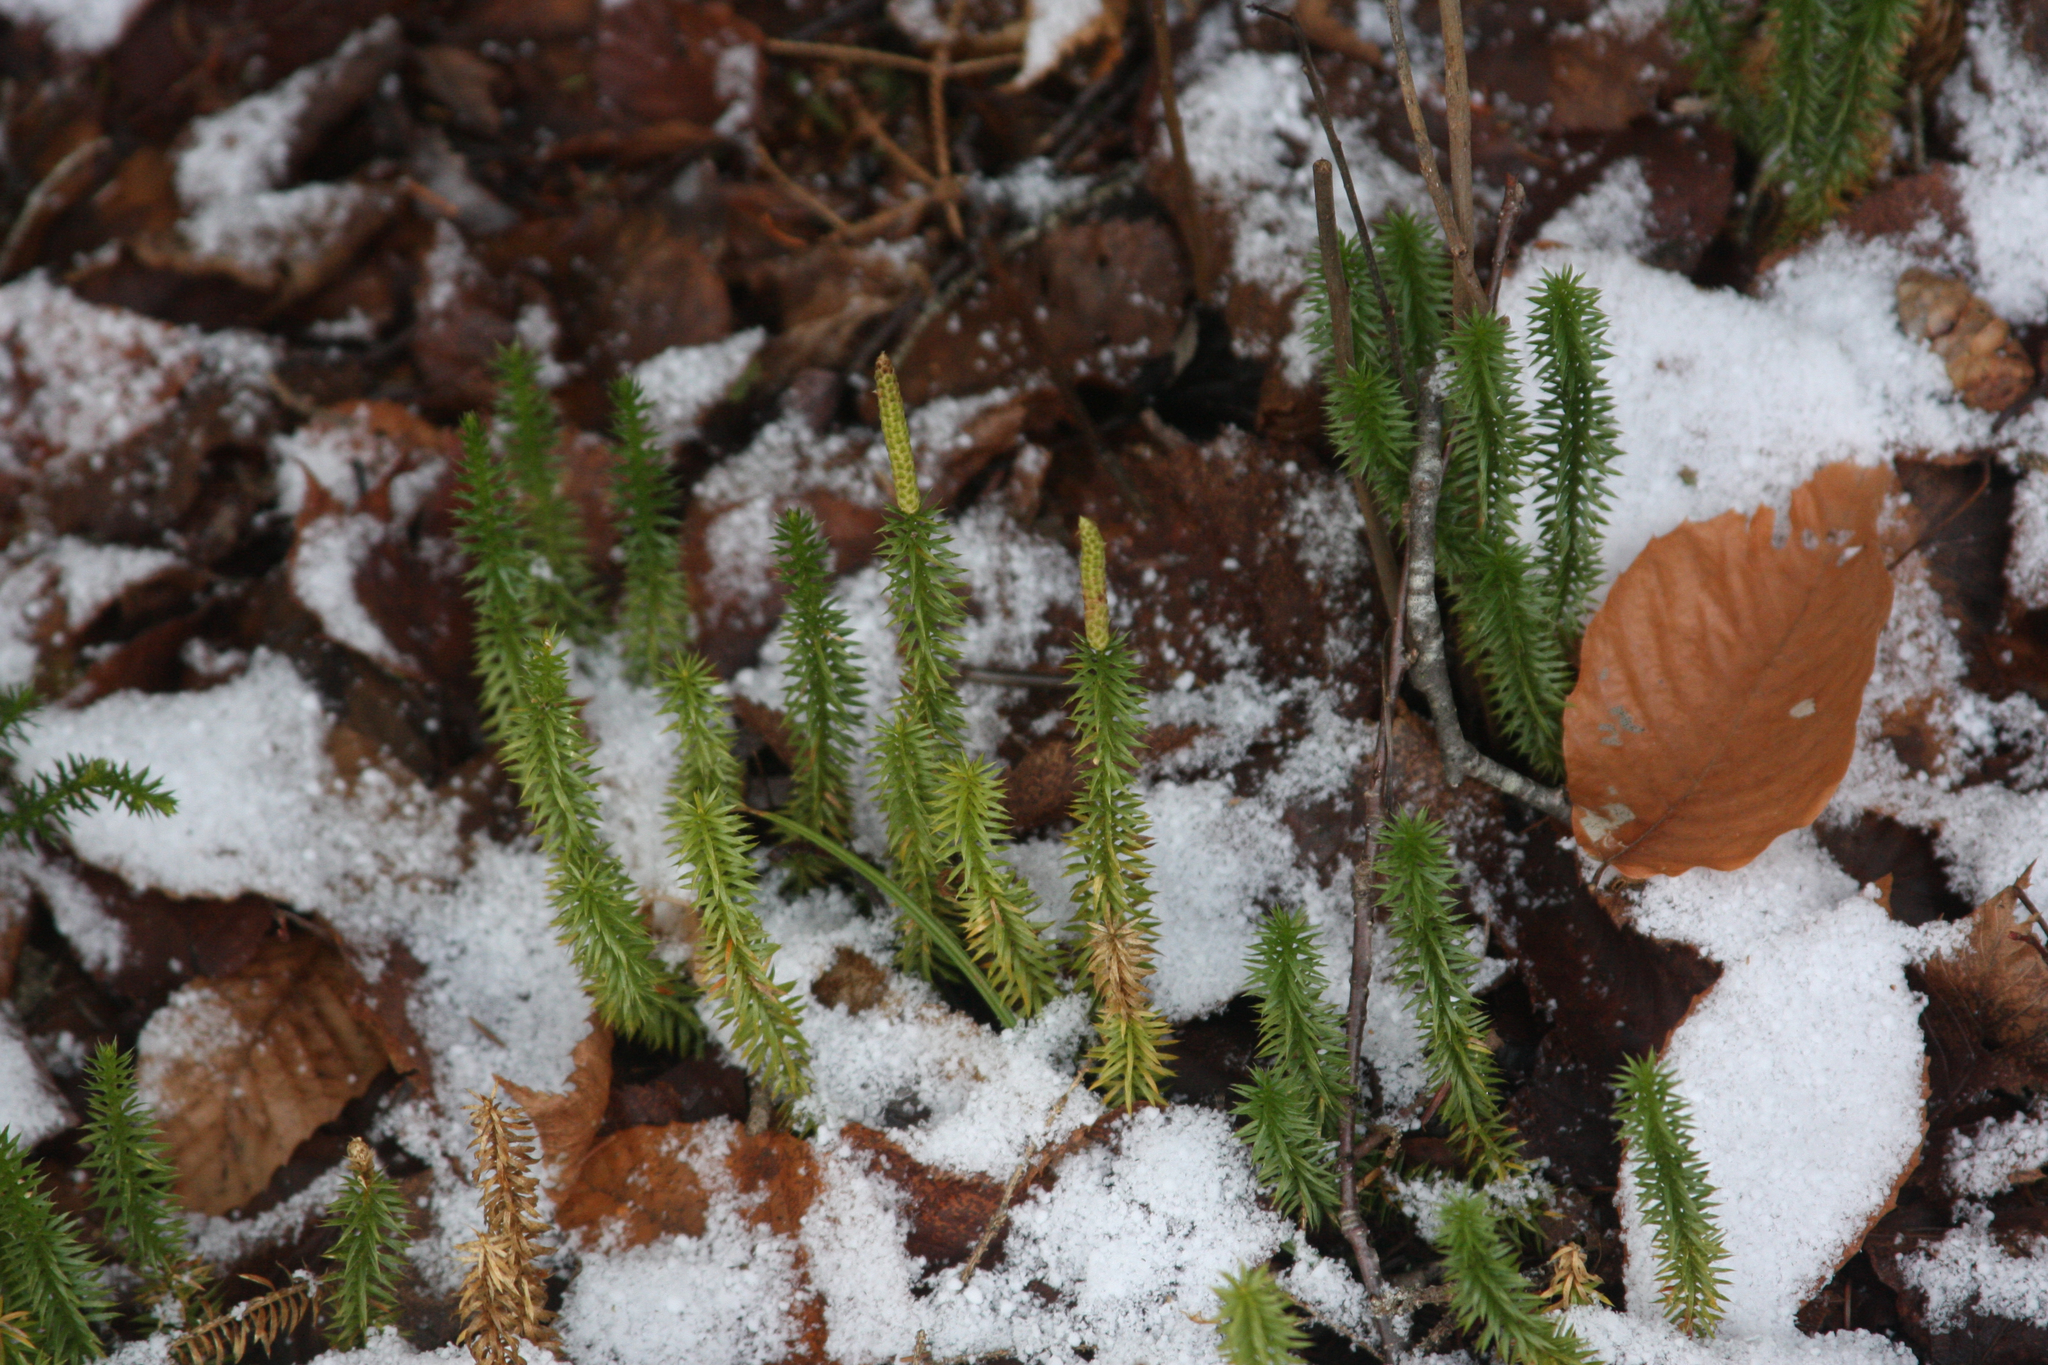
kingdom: Plantae
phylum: Tracheophyta
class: Lycopodiopsida
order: Lycopodiales
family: Lycopodiaceae
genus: Spinulum
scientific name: Spinulum annotinum
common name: Interrupted club-moss
